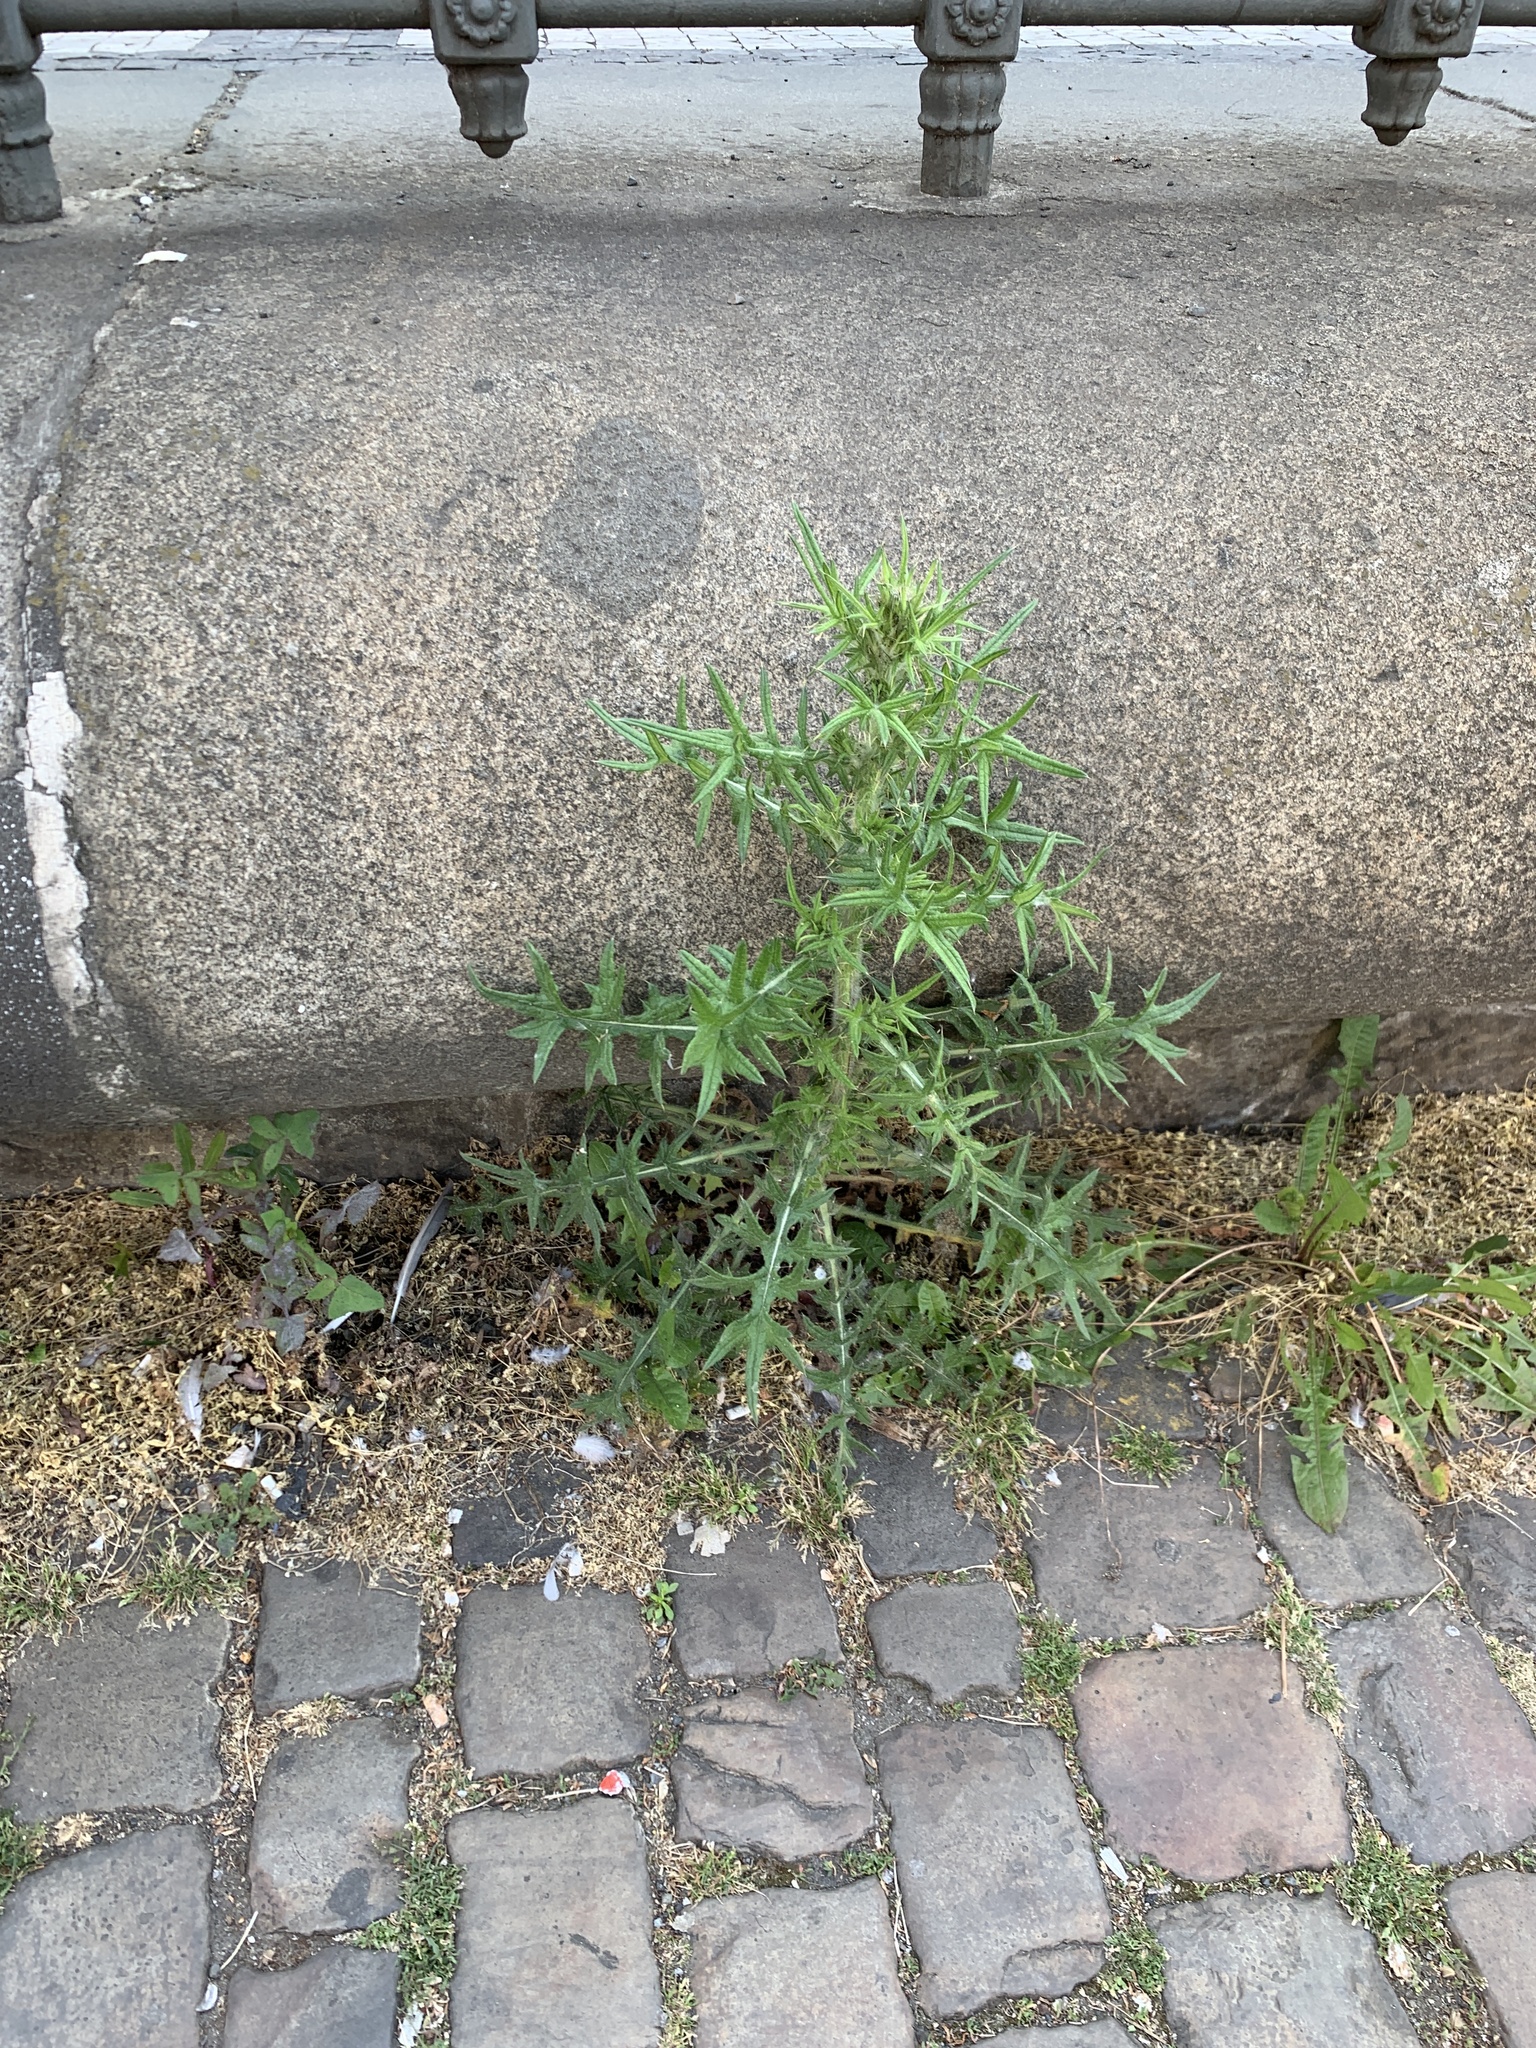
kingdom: Plantae
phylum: Tracheophyta
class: Magnoliopsida
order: Asterales
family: Asteraceae
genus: Cirsium
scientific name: Cirsium vulgare
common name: Bull thistle
